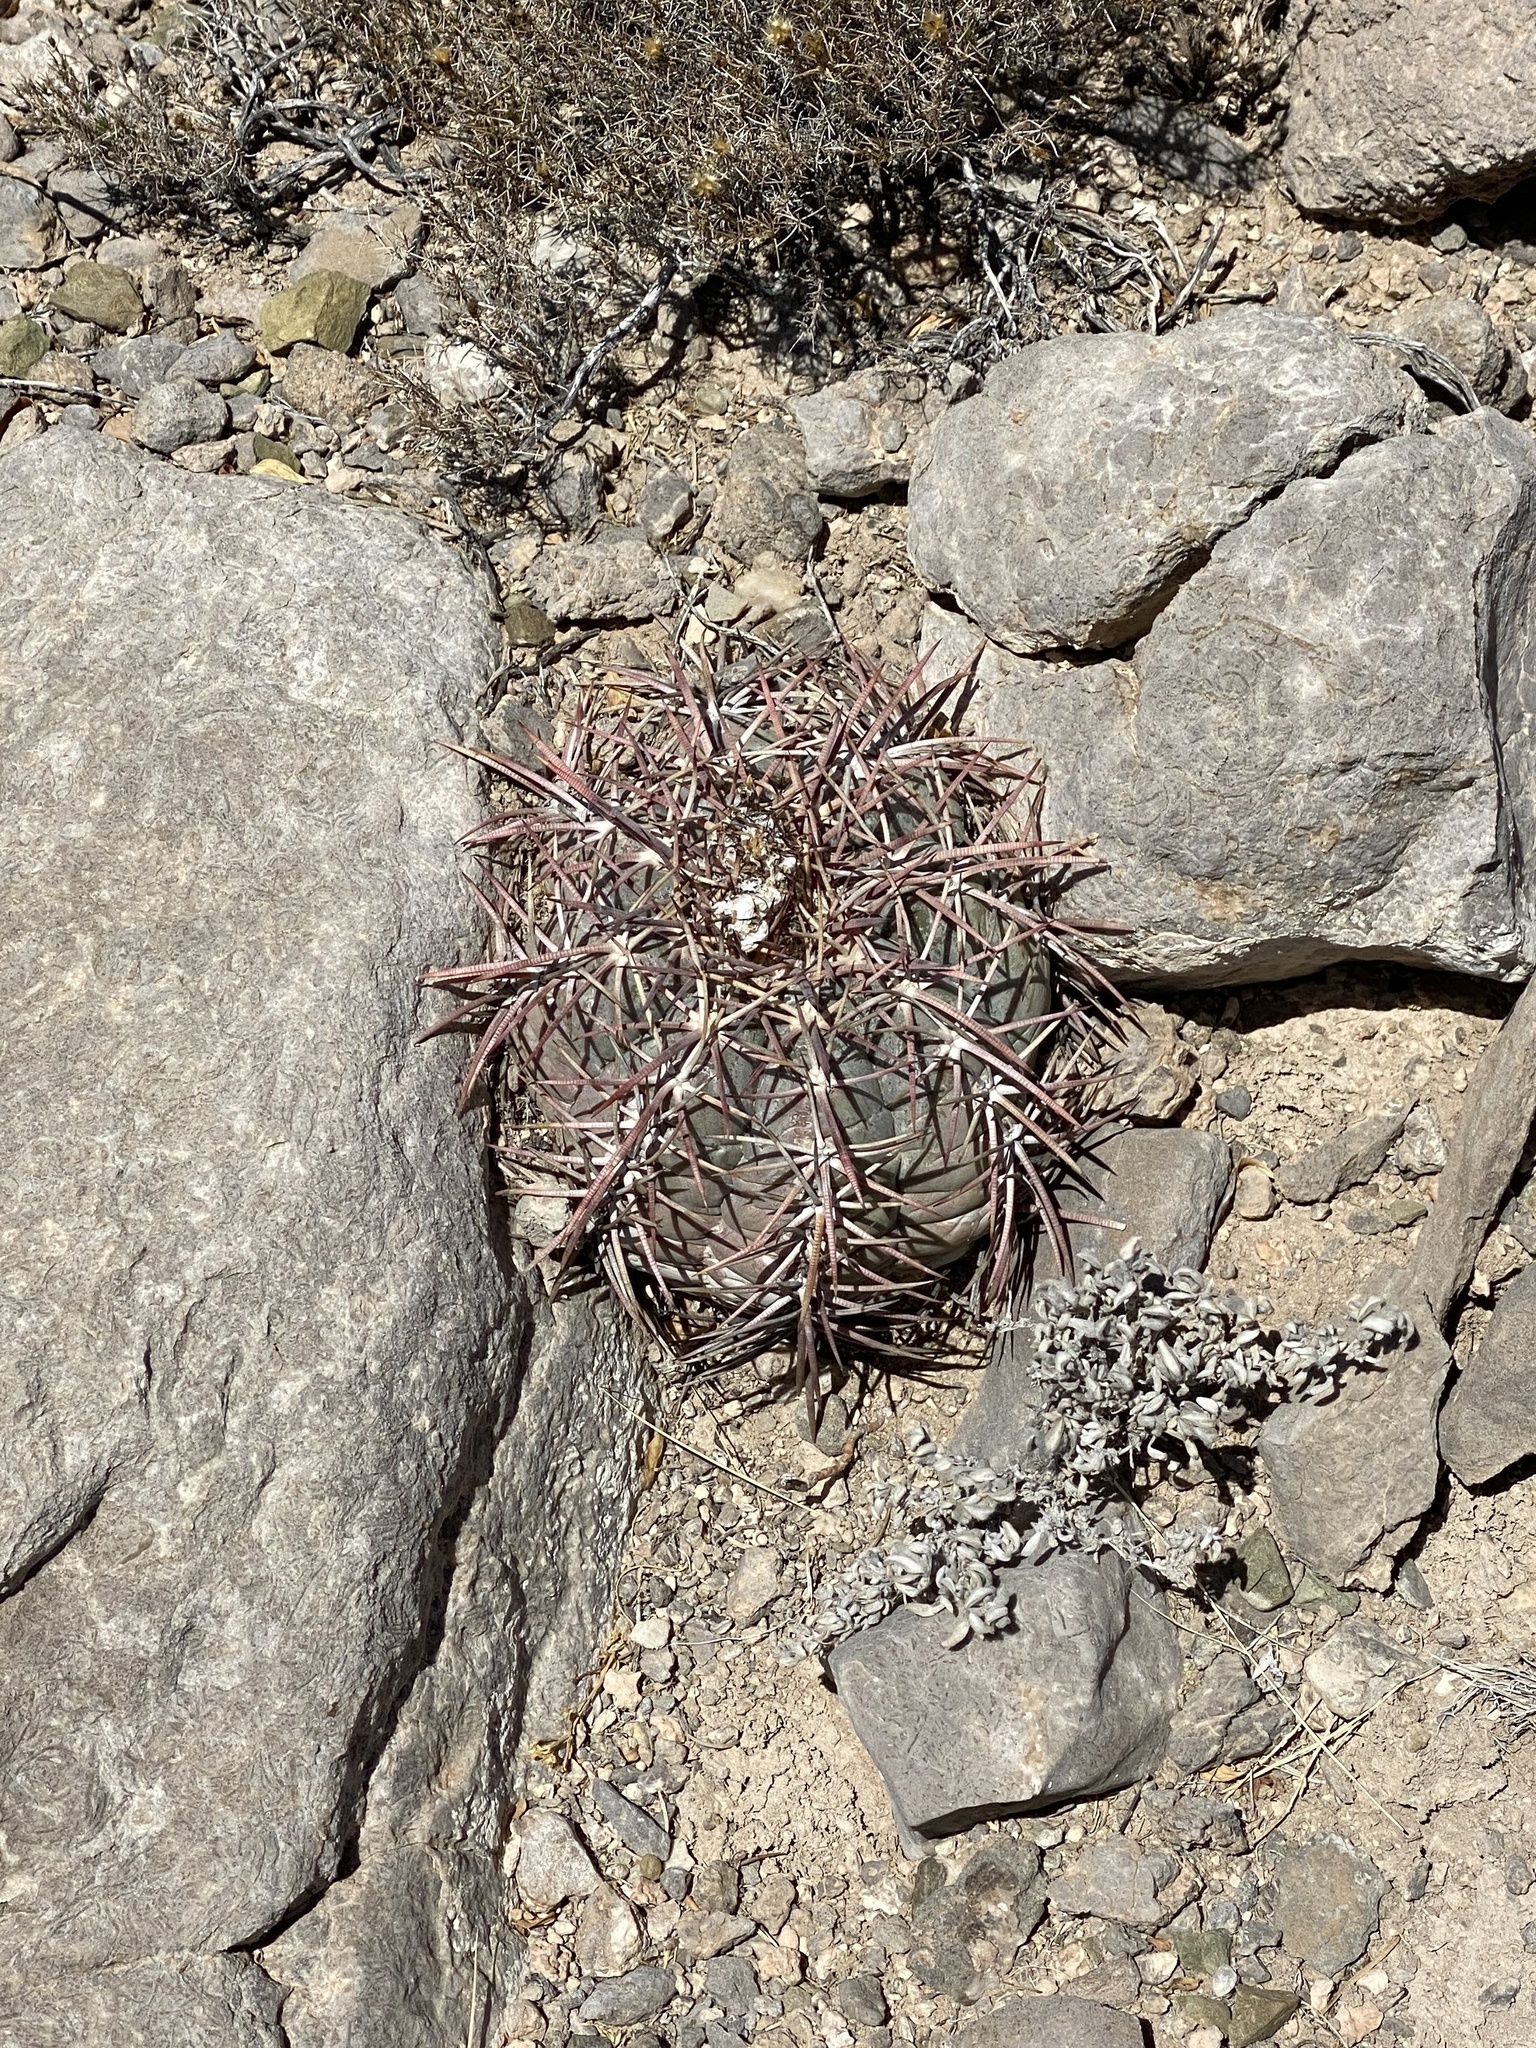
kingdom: Plantae
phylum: Tracheophyta
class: Magnoliopsida
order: Caryophyllales
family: Cactaceae
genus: Echinocactus
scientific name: Echinocactus horizonthalonius
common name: Devilshead
